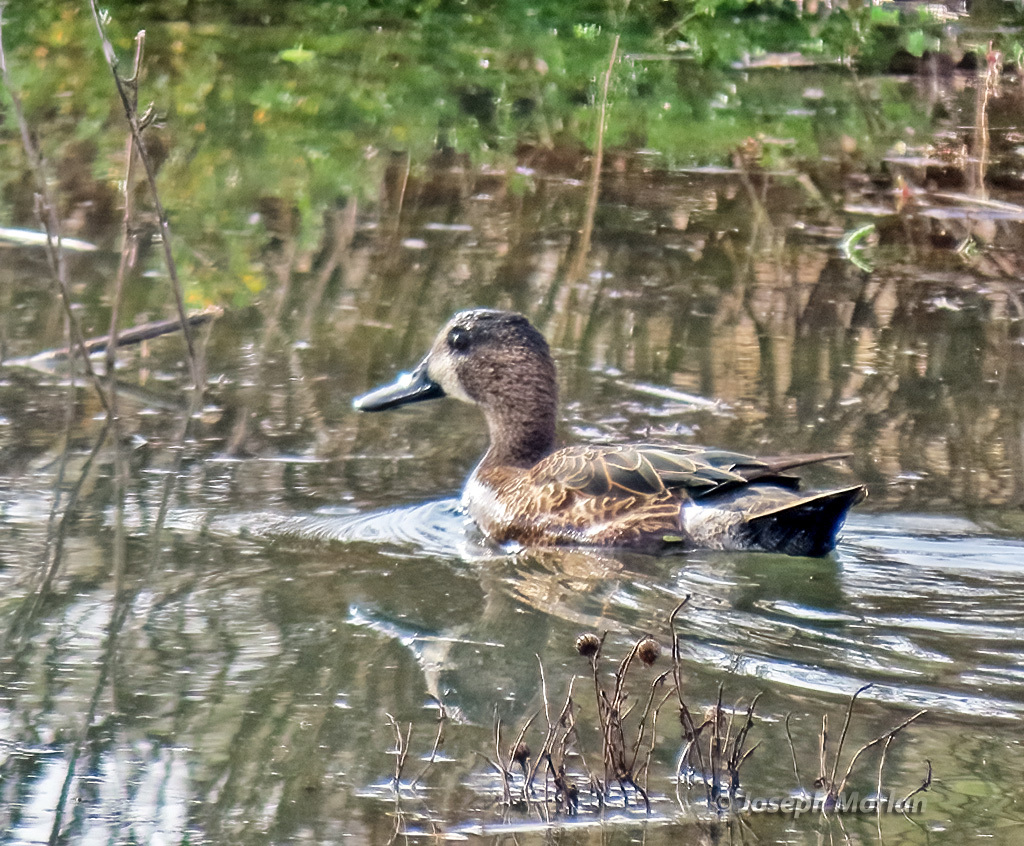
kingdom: Animalia
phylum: Chordata
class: Aves
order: Anseriformes
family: Anatidae
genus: Spatula
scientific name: Spatula discors
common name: Blue-winged teal
